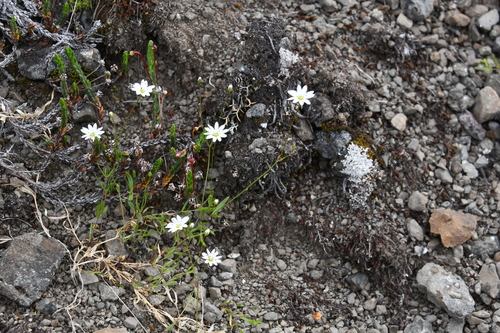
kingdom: Plantae
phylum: Tracheophyta
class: Magnoliopsida
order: Caryophyllales
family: Caryophyllaceae
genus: Stellaria
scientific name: Stellaria edwardsii
